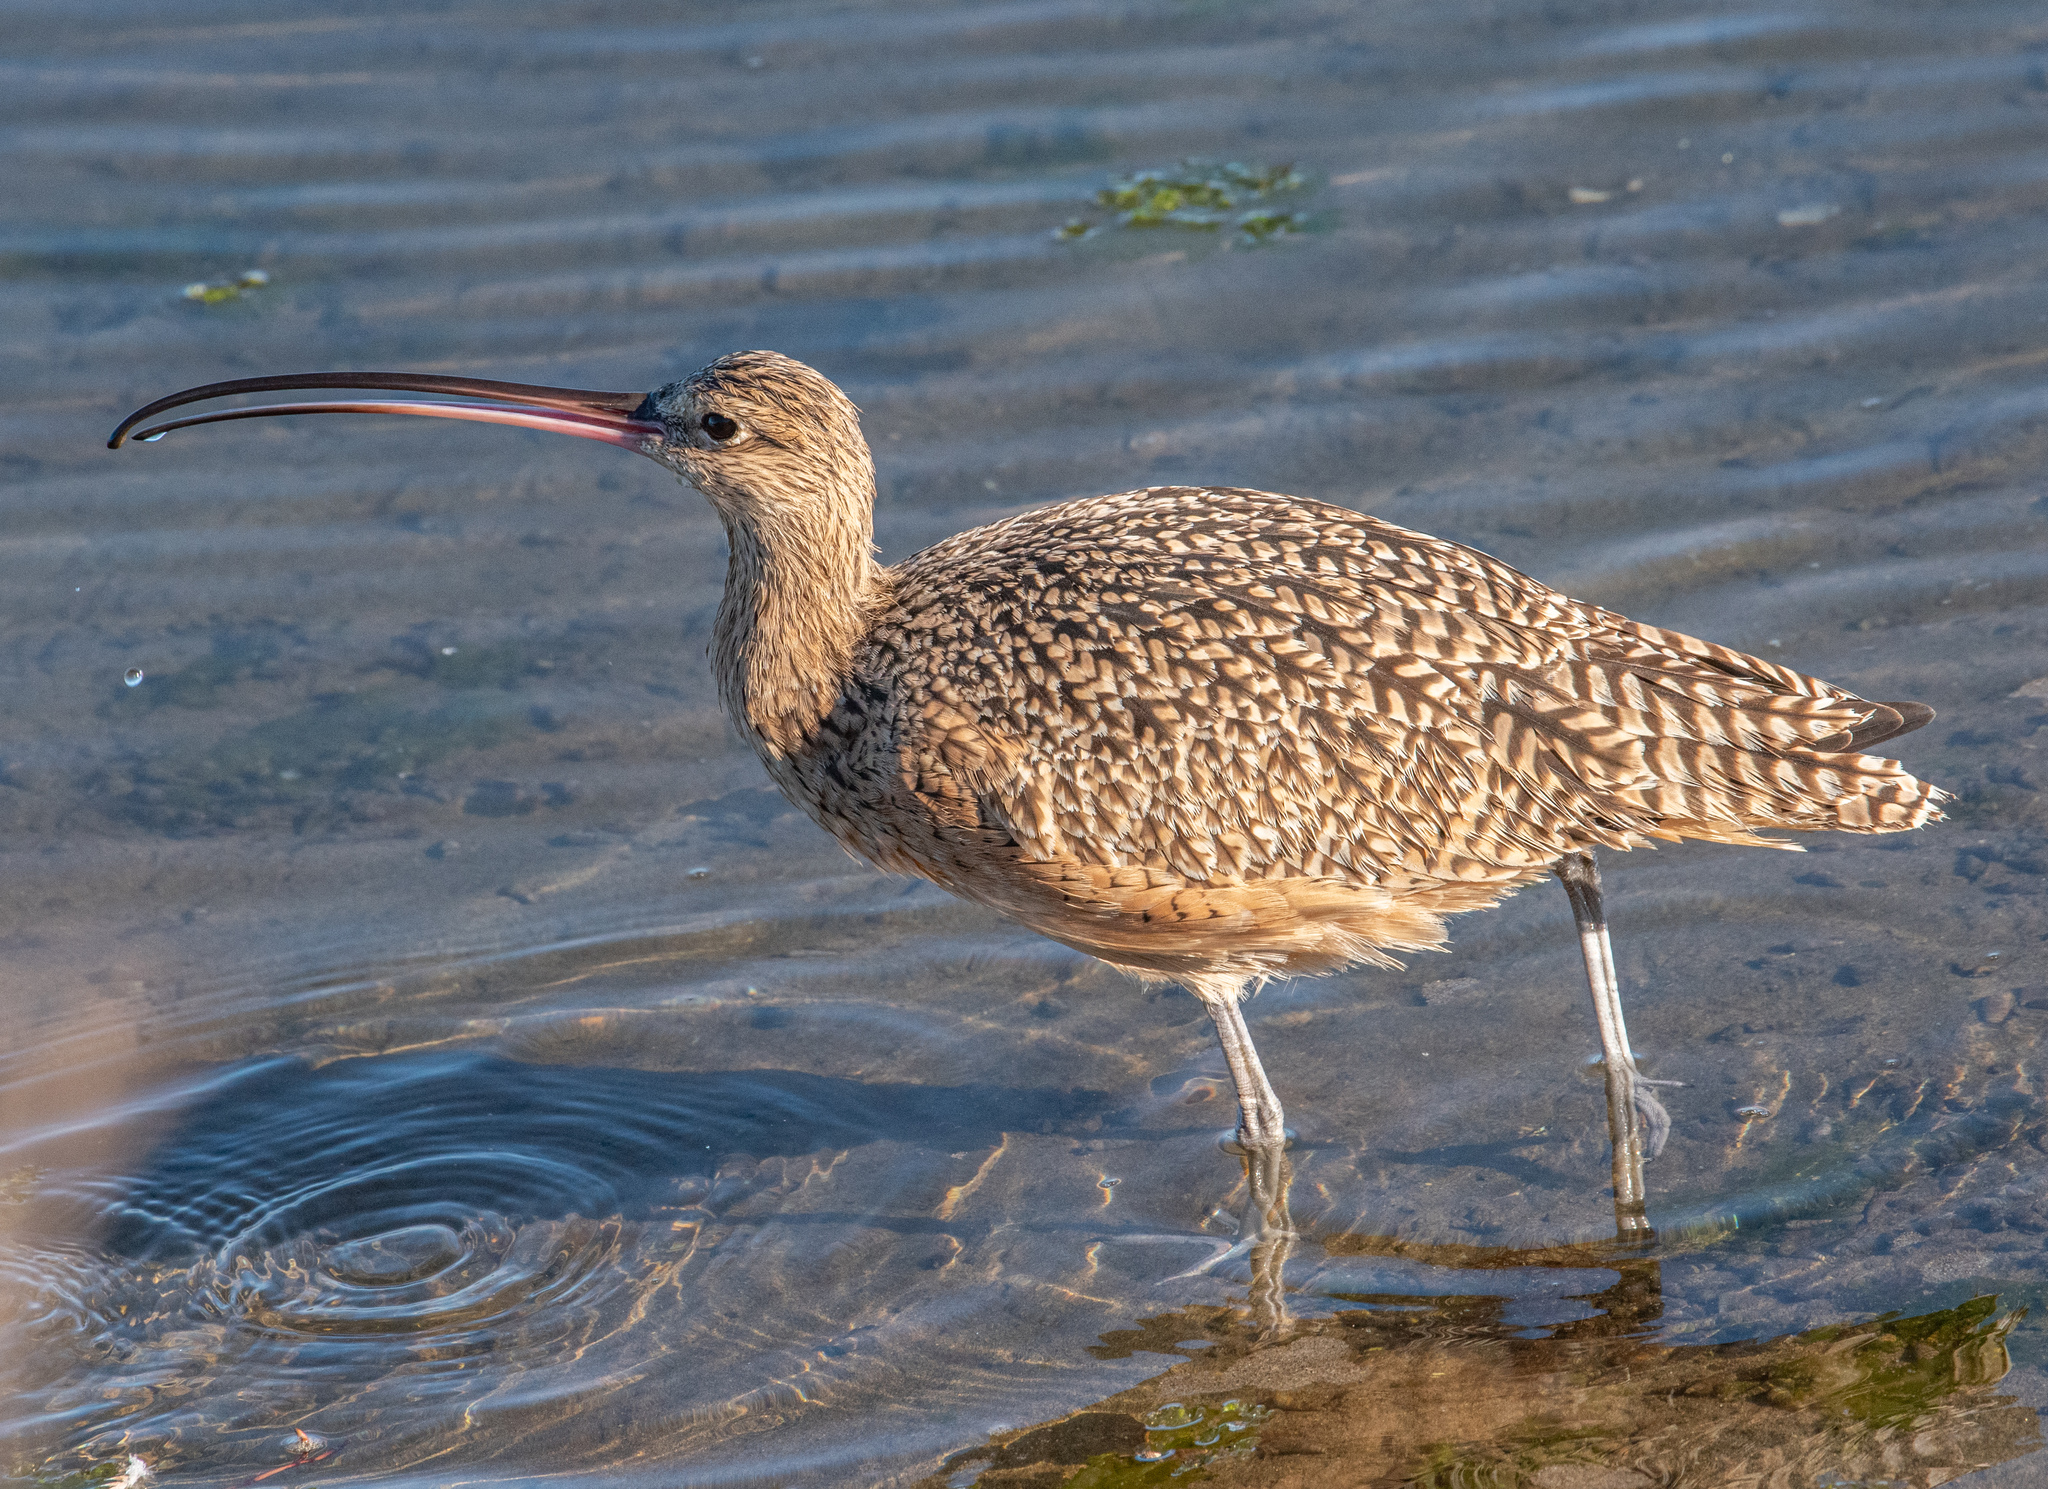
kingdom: Animalia
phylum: Chordata
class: Aves
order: Charadriiformes
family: Scolopacidae
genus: Numenius
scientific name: Numenius americanus
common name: Long-billed curlew
